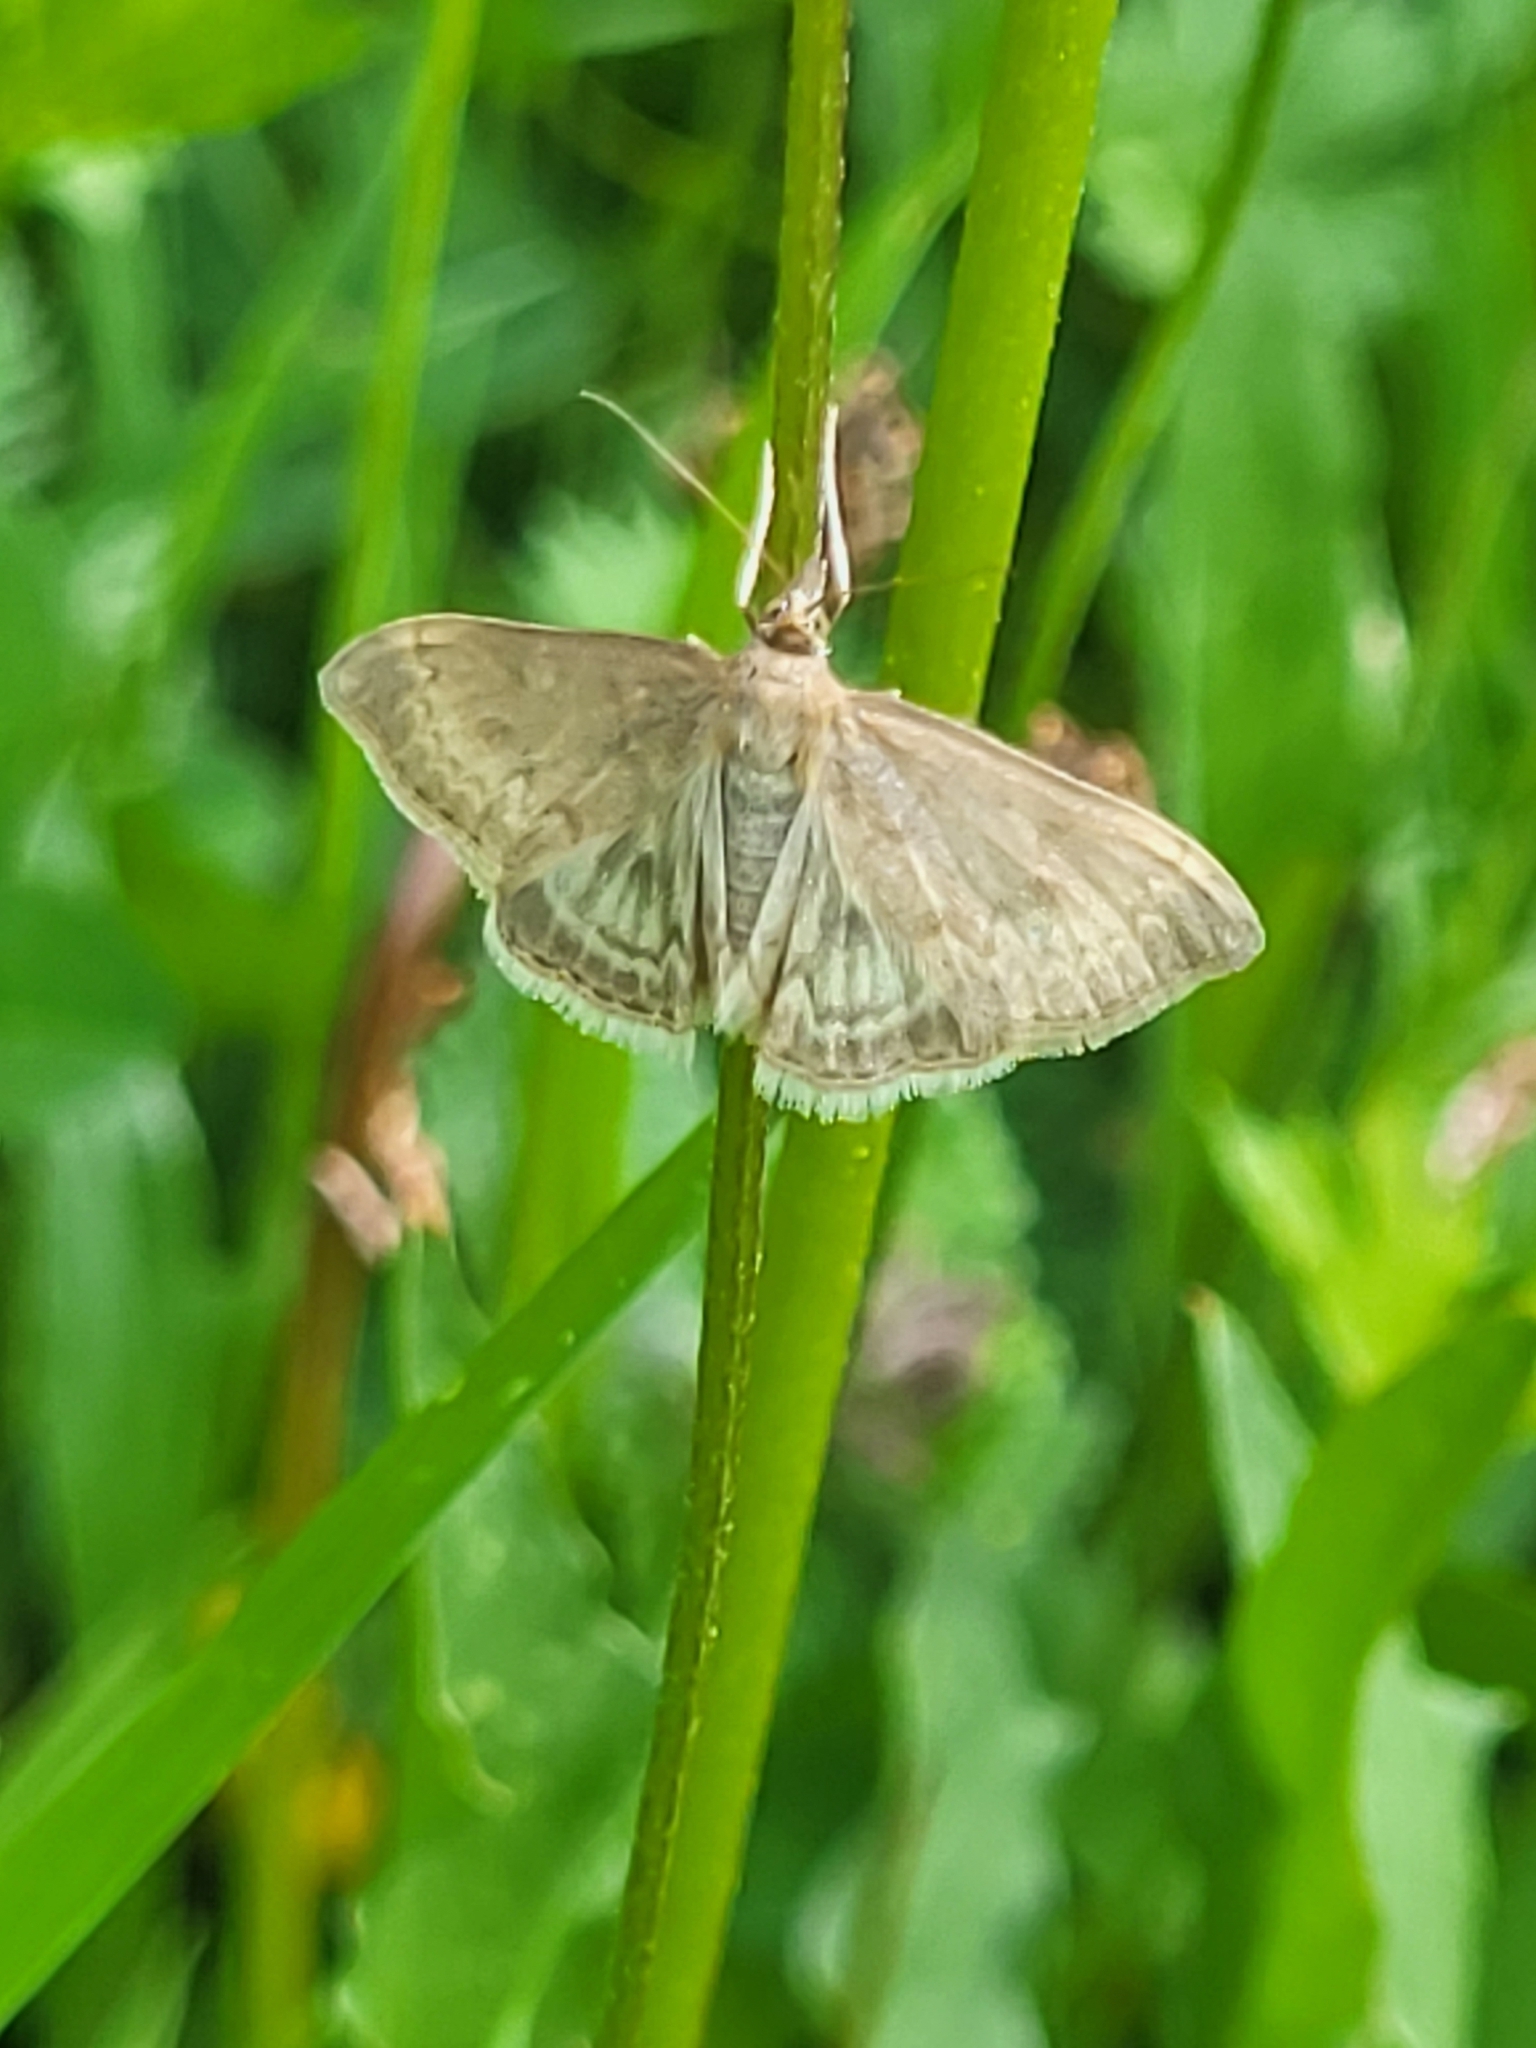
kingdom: Animalia
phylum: Arthropoda
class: Insecta
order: Lepidoptera
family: Crambidae
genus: Anania
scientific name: Anania fuscalis
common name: Cinerous pearl
